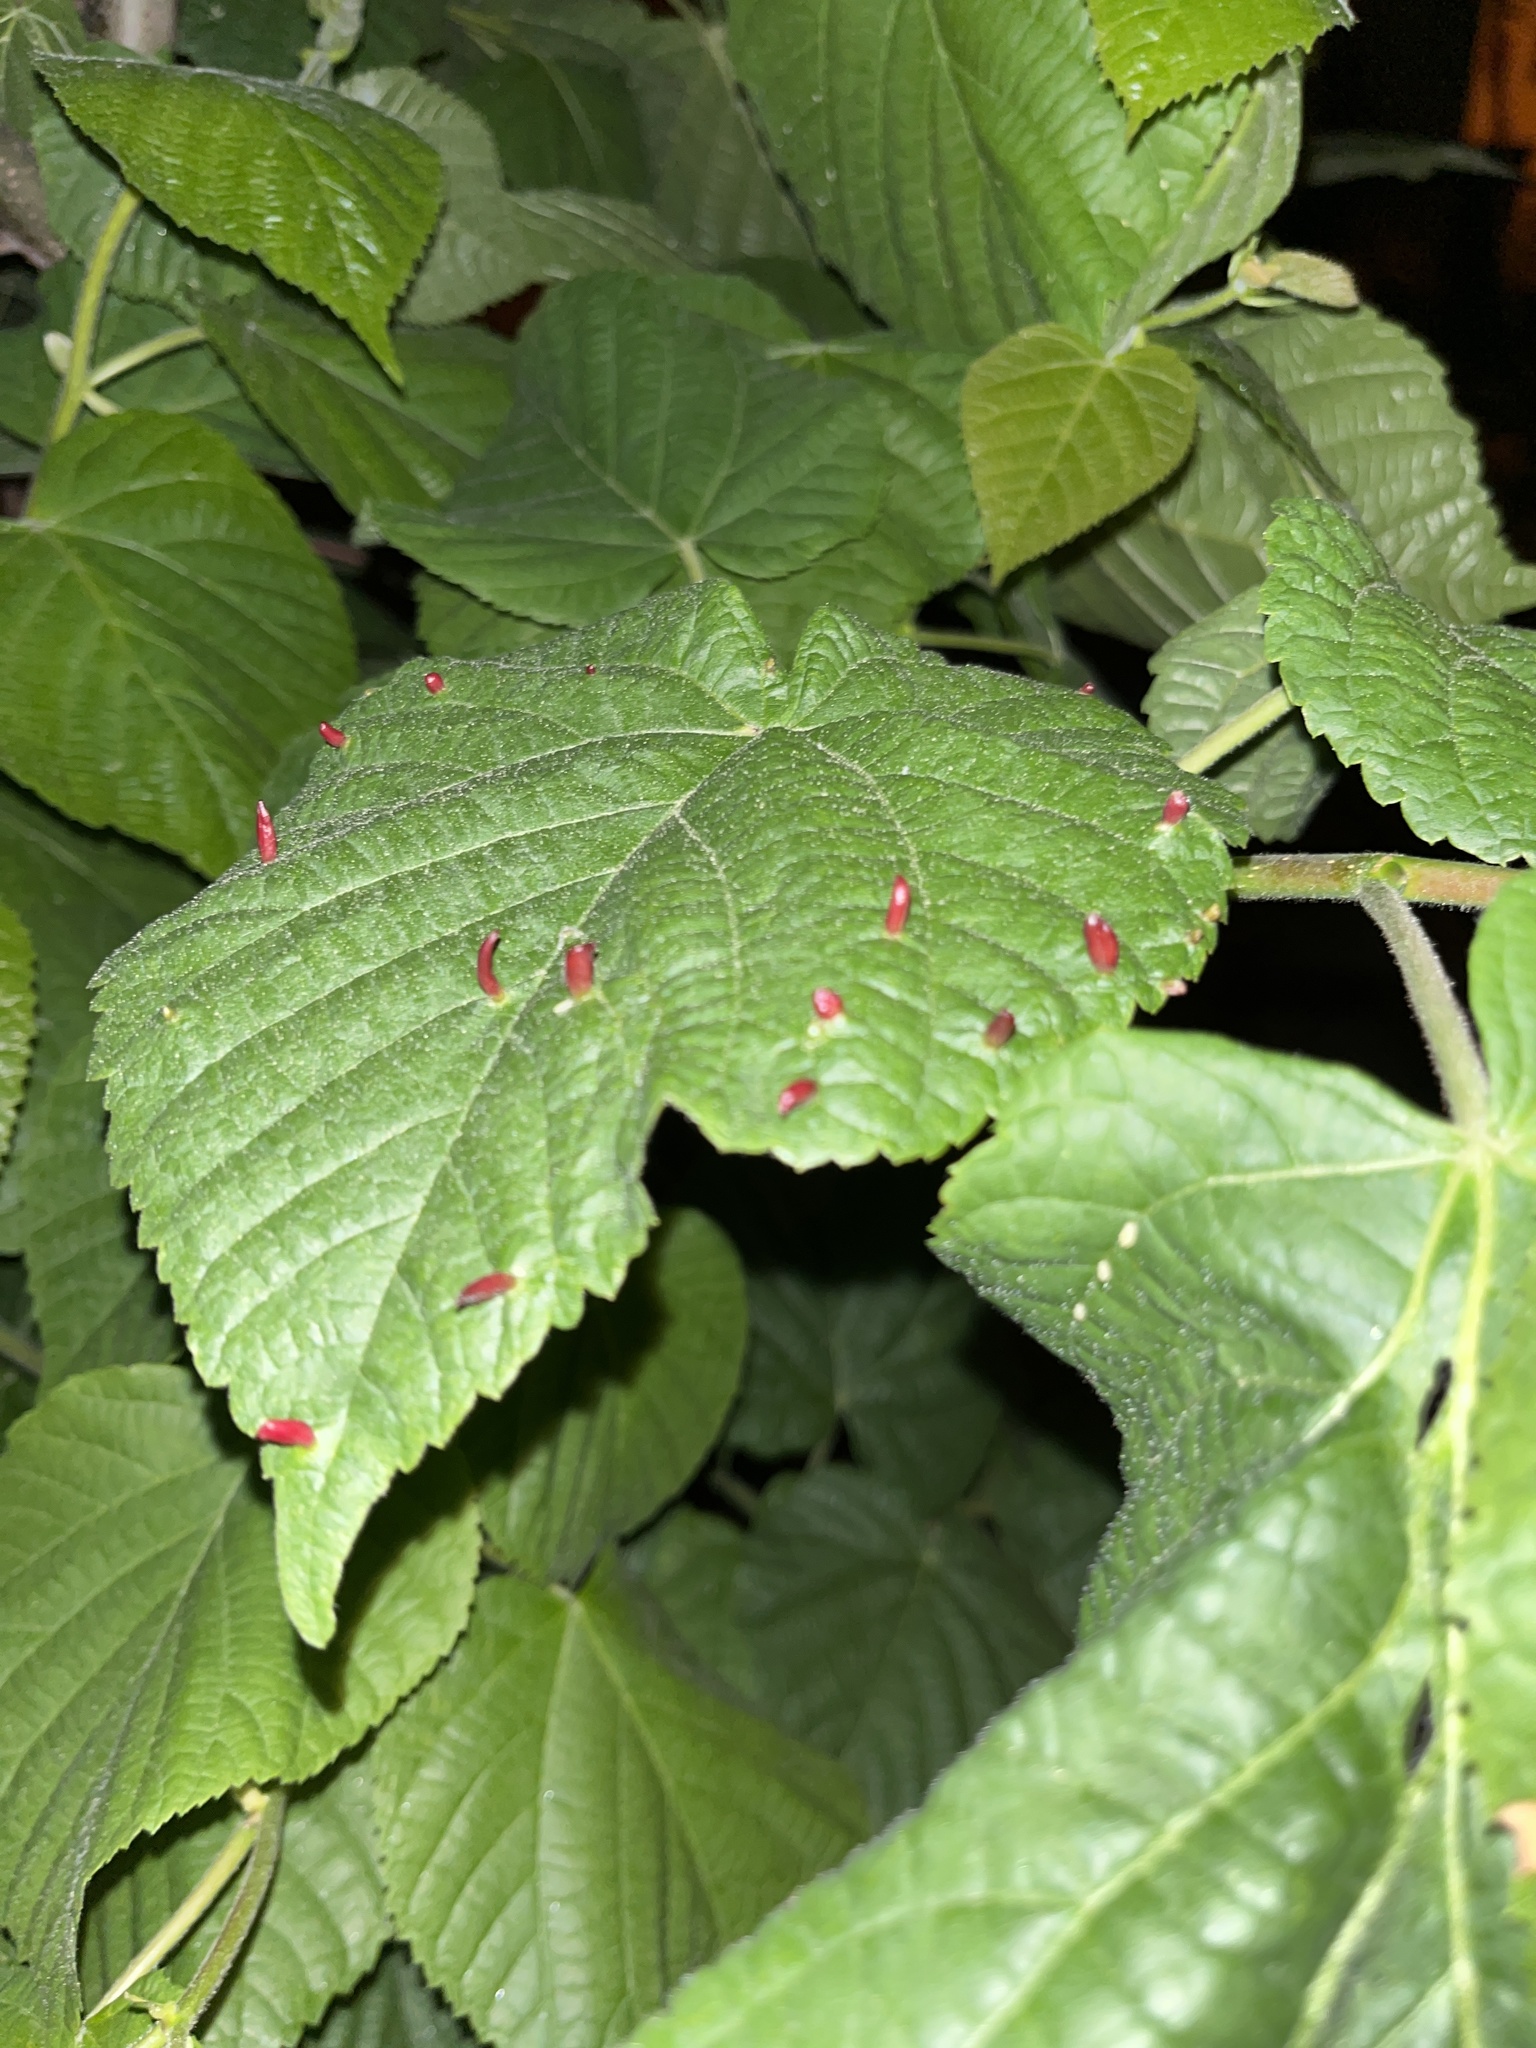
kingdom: Animalia
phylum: Arthropoda
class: Arachnida
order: Trombidiformes
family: Eriophyidae
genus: Eriophyes
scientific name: Eriophyes tiliae
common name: Red nail gall mite
